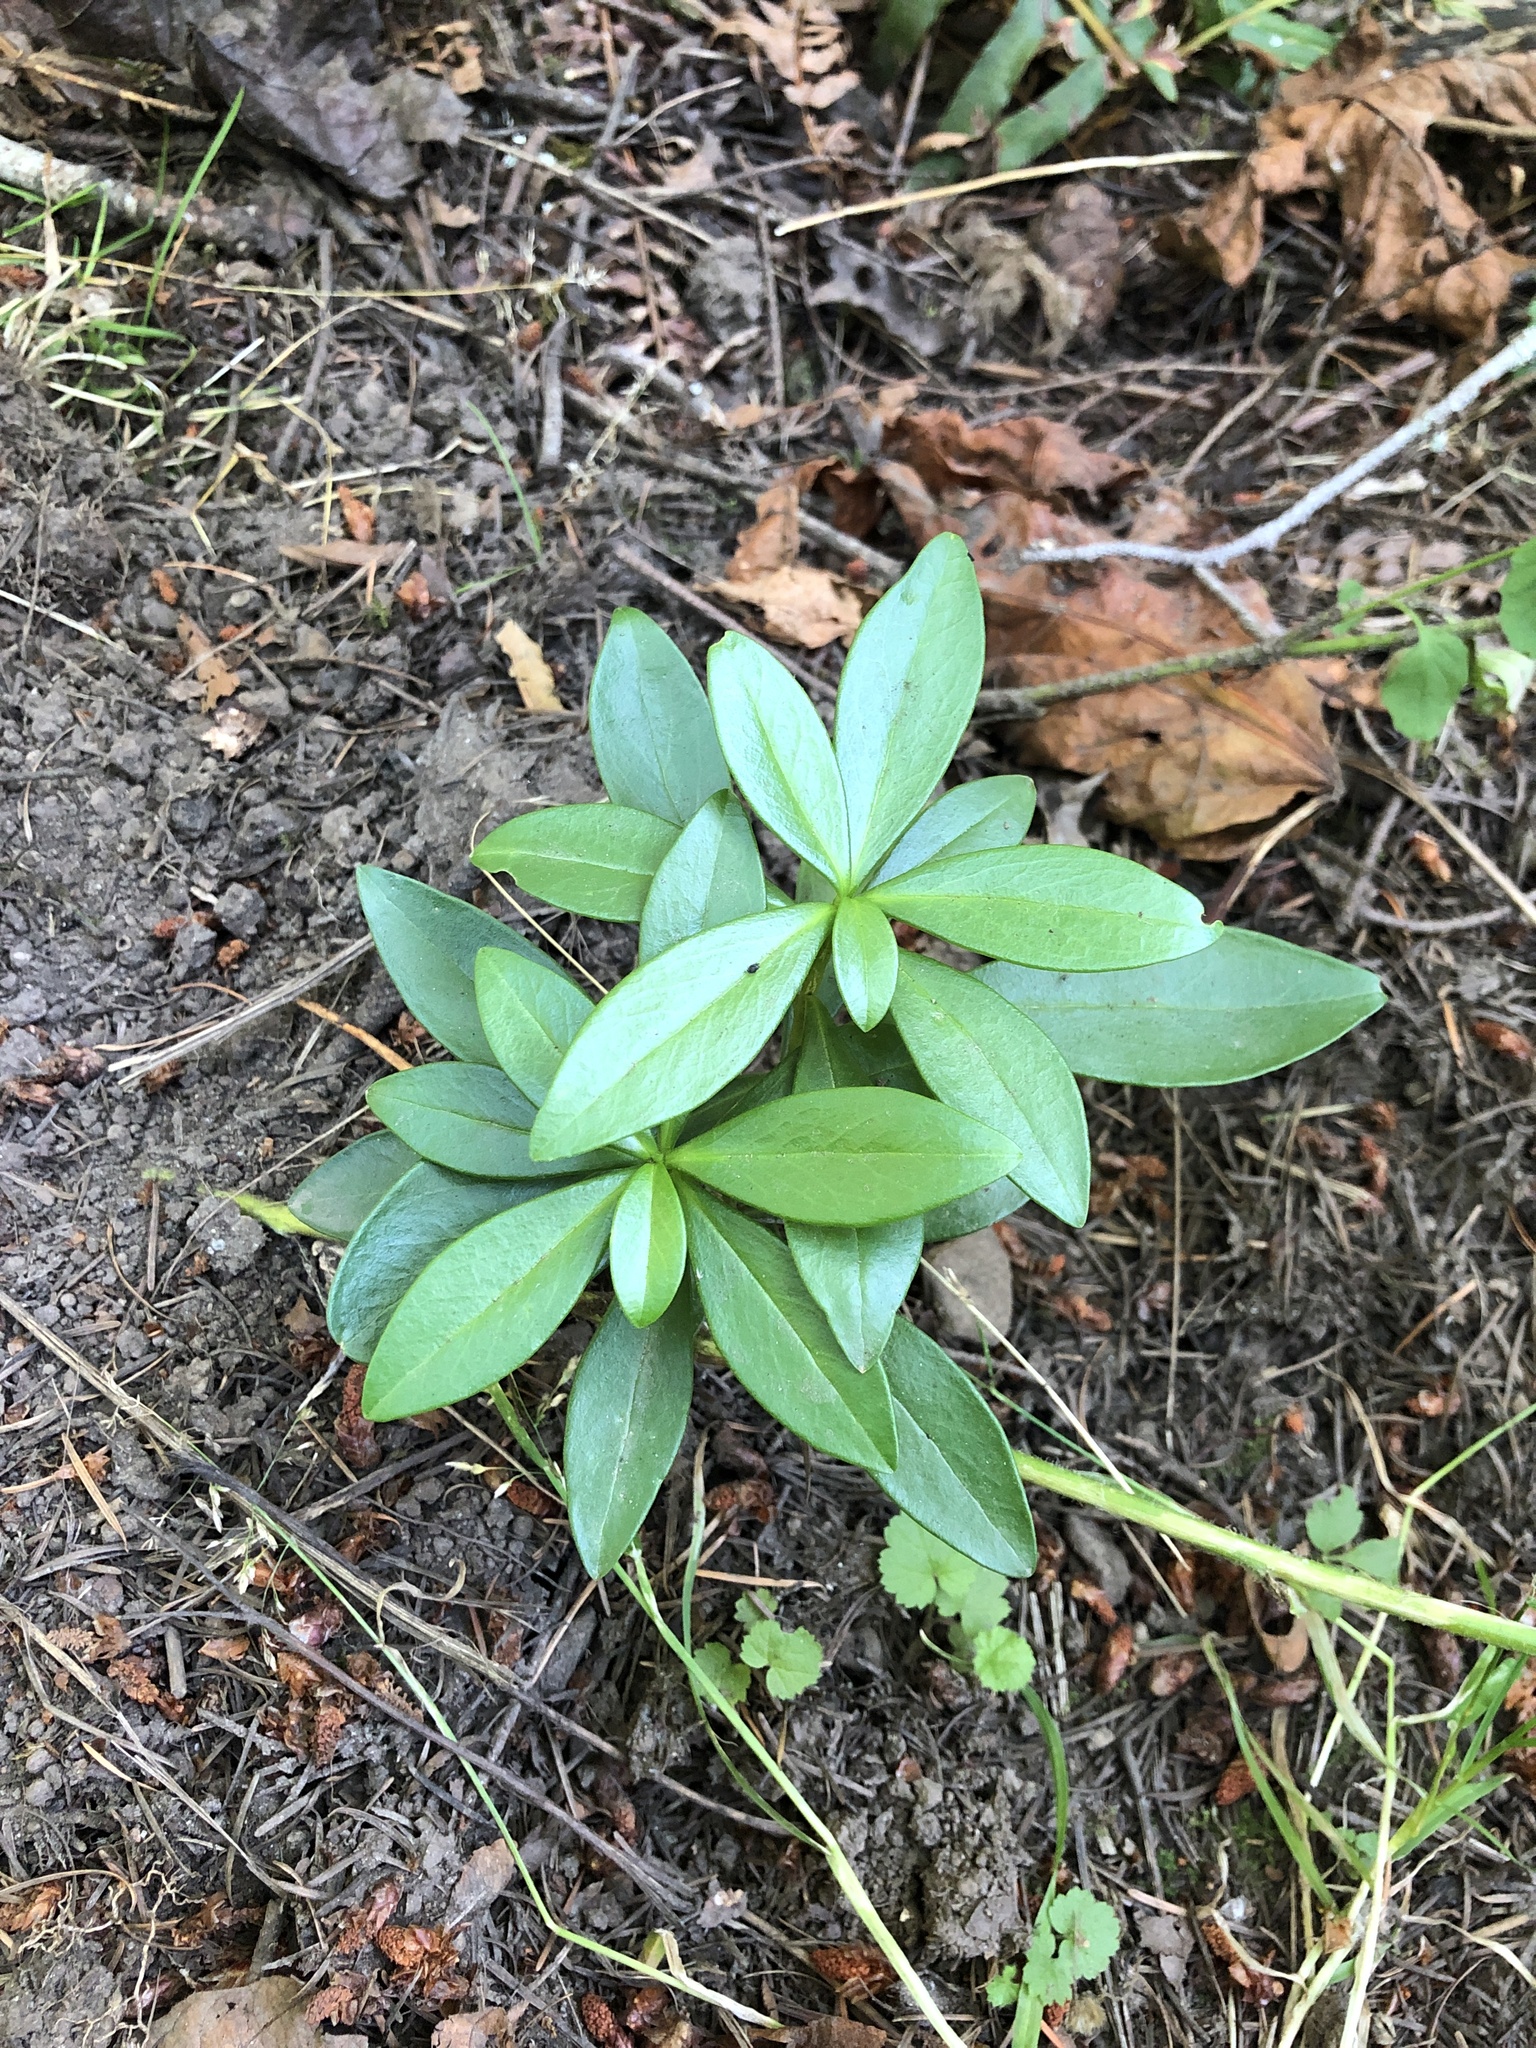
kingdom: Plantae
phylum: Tracheophyta
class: Magnoliopsida
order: Malvales
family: Thymelaeaceae
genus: Daphne
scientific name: Daphne laureola
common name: Spurge-laurel
